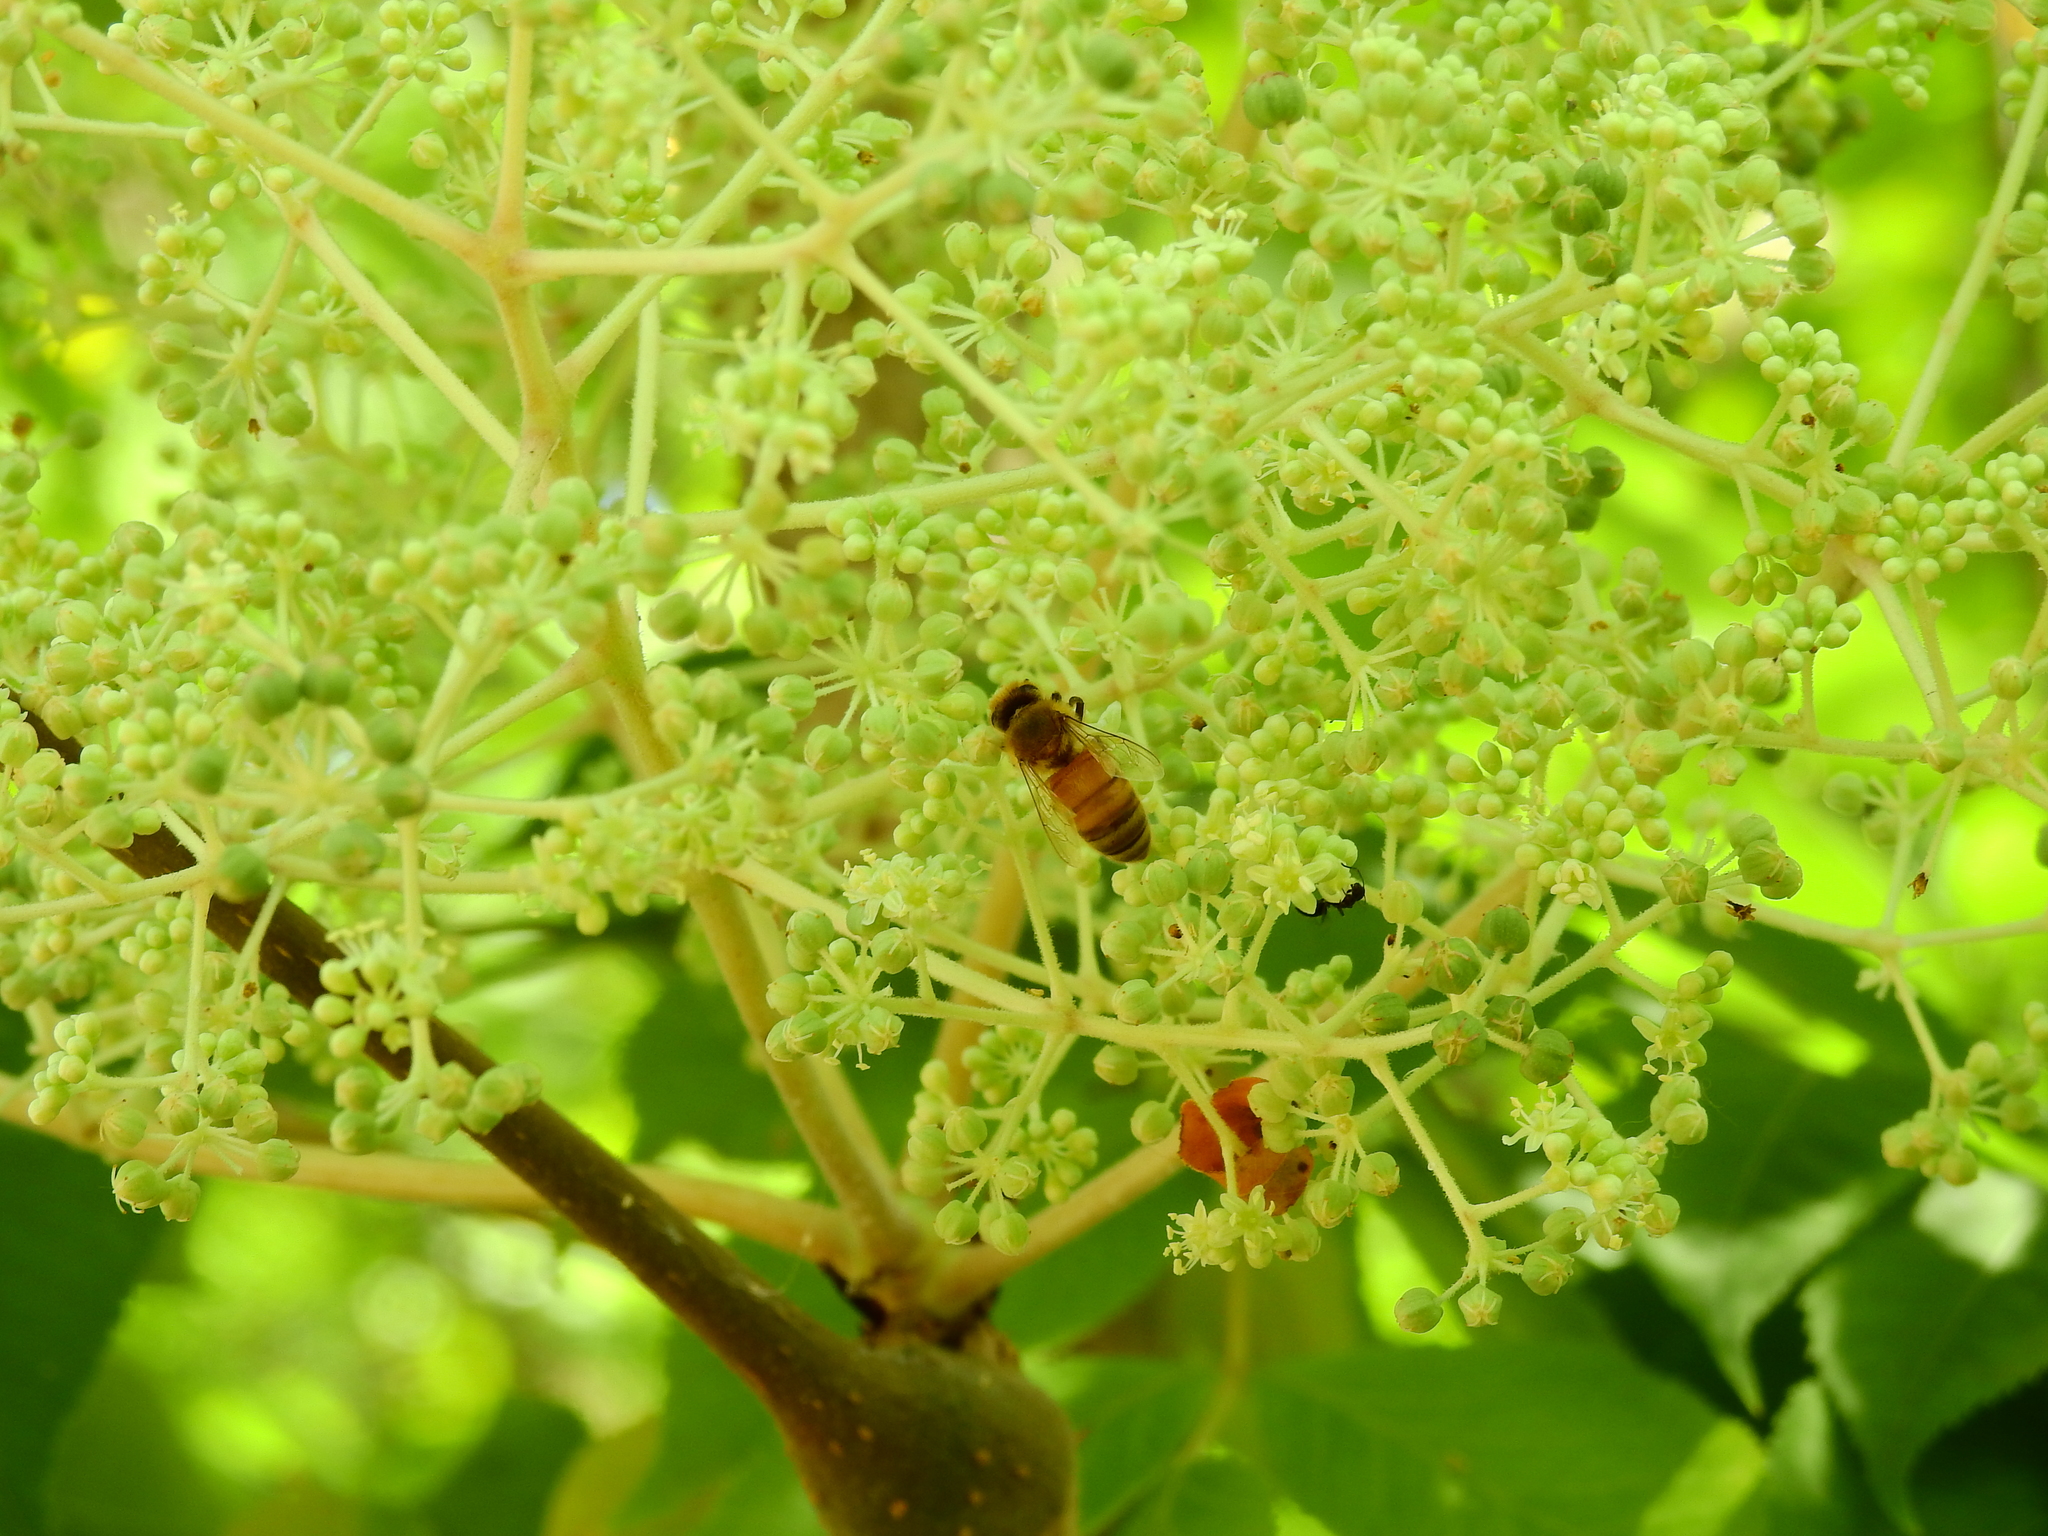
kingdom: Animalia
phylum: Arthropoda
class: Insecta
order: Hymenoptera
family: Apidae
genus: Apis
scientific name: Apis mellifera
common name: Honey bee
